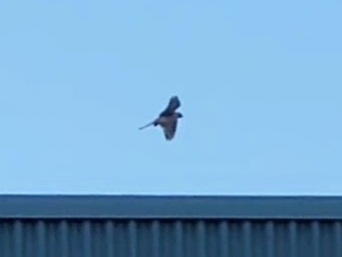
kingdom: Animalia
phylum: Chordata
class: Aves
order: Falconiformes
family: Falconidae
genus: Falco
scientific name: Falco sparverius
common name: American kestrel
